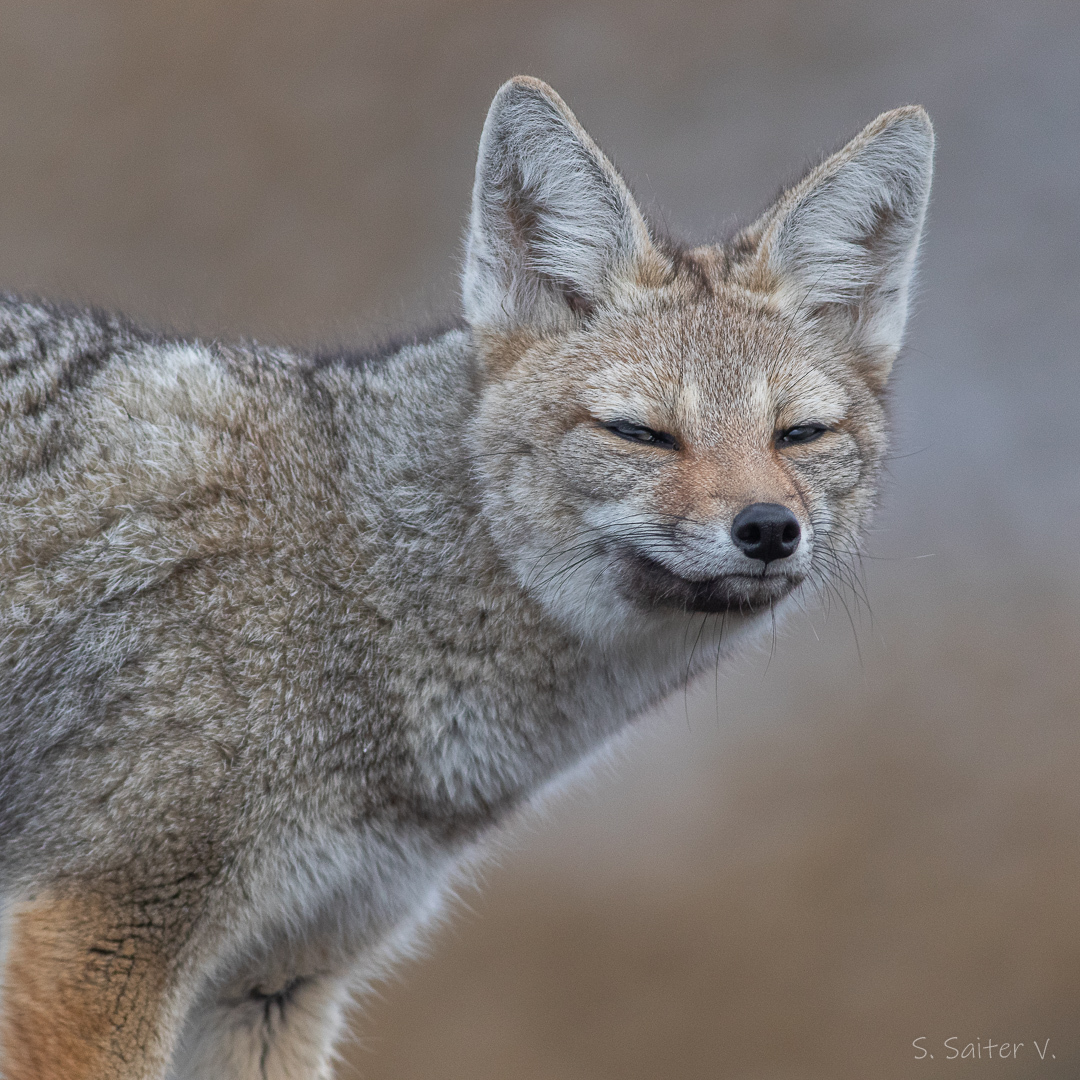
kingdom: Animalia
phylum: Chordata
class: Mammalia
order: Carnivora
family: Canidae
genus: Lycalopex
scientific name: Lycalopex gymnocercus
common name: Pampas fox
